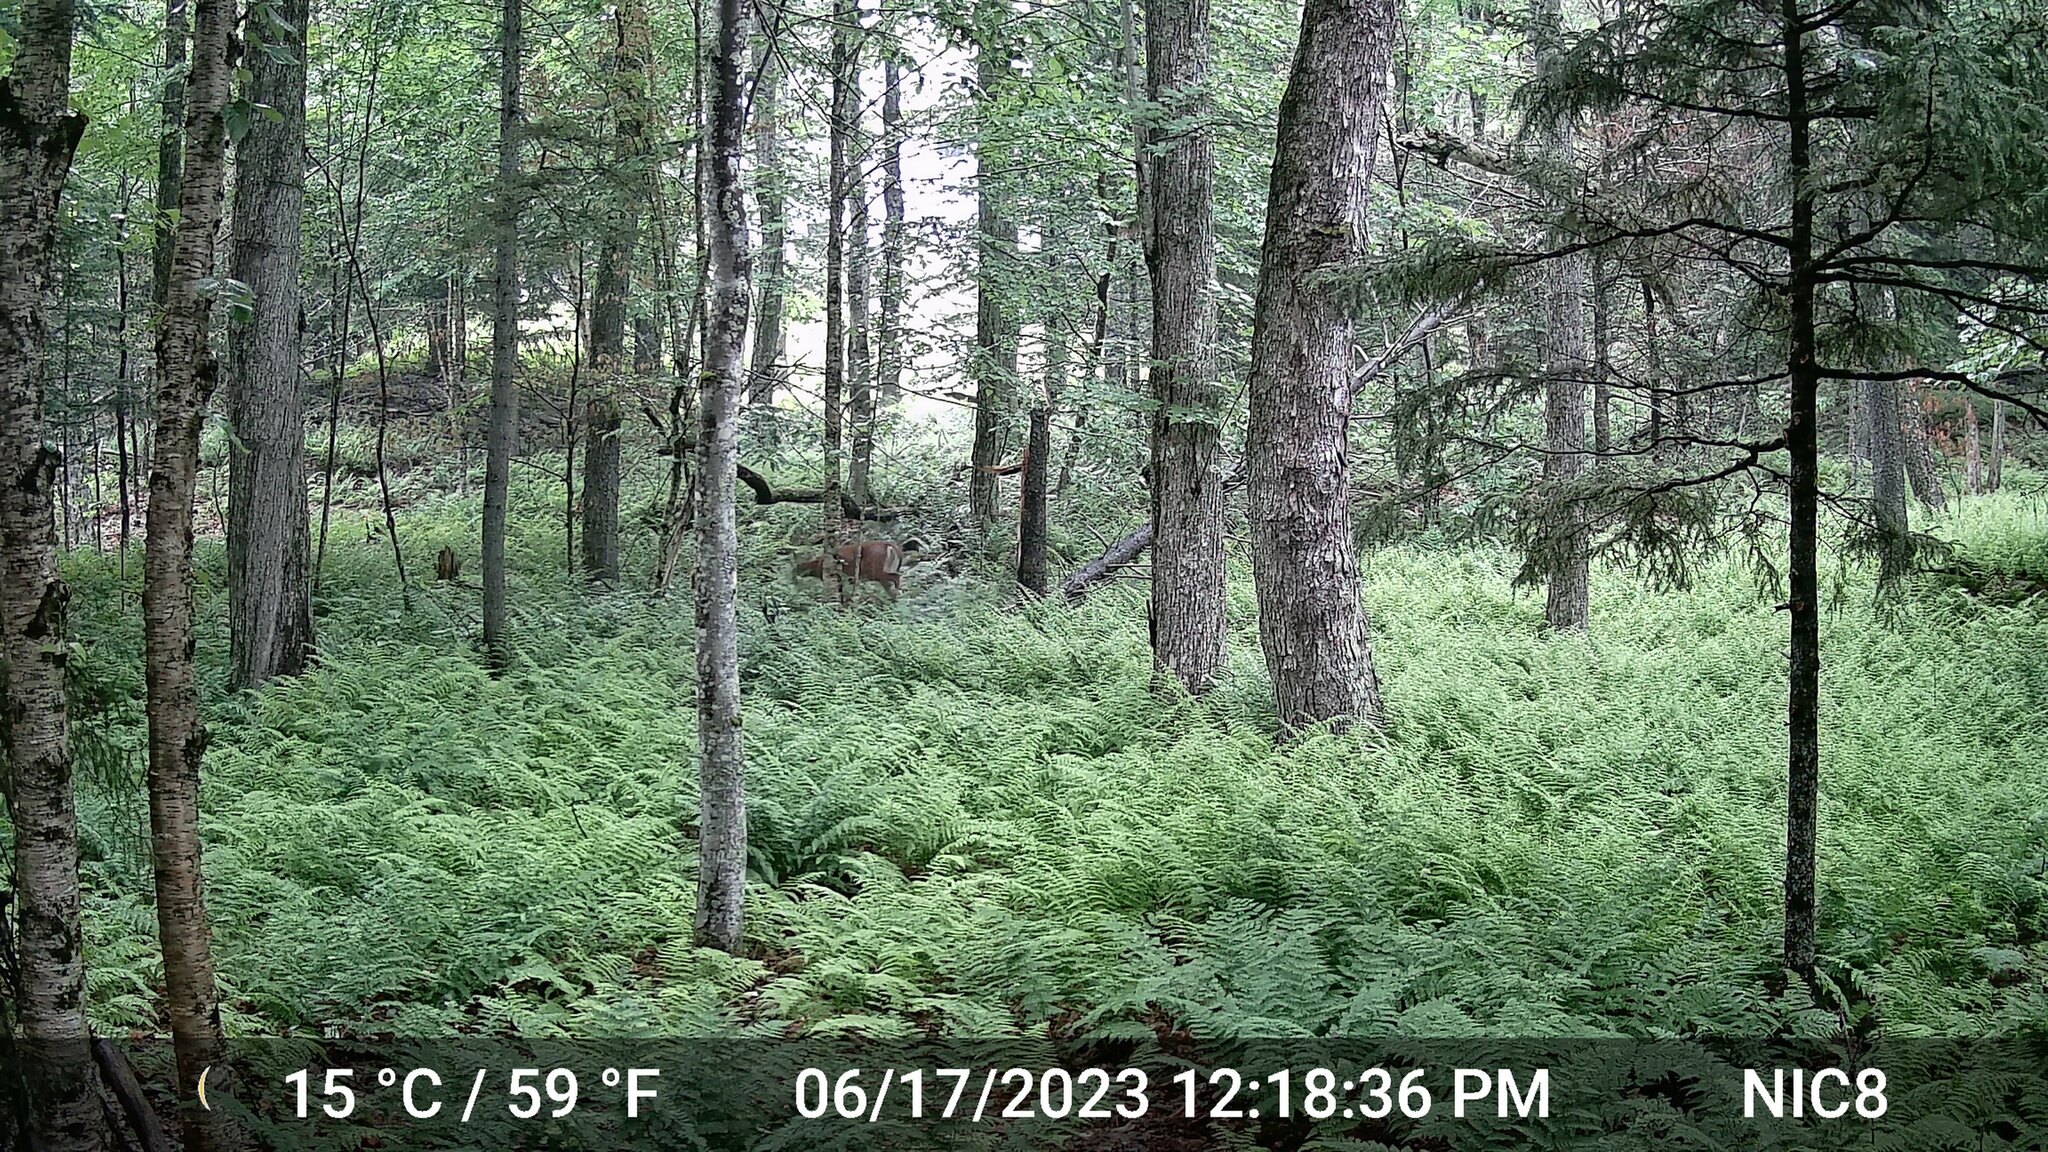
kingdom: Animalia
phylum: Chordata
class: Mammalia
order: Artiodactyla
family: Cervidae
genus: Odocoileus
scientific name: Odocoileus virginianus
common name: White-tailed deer
